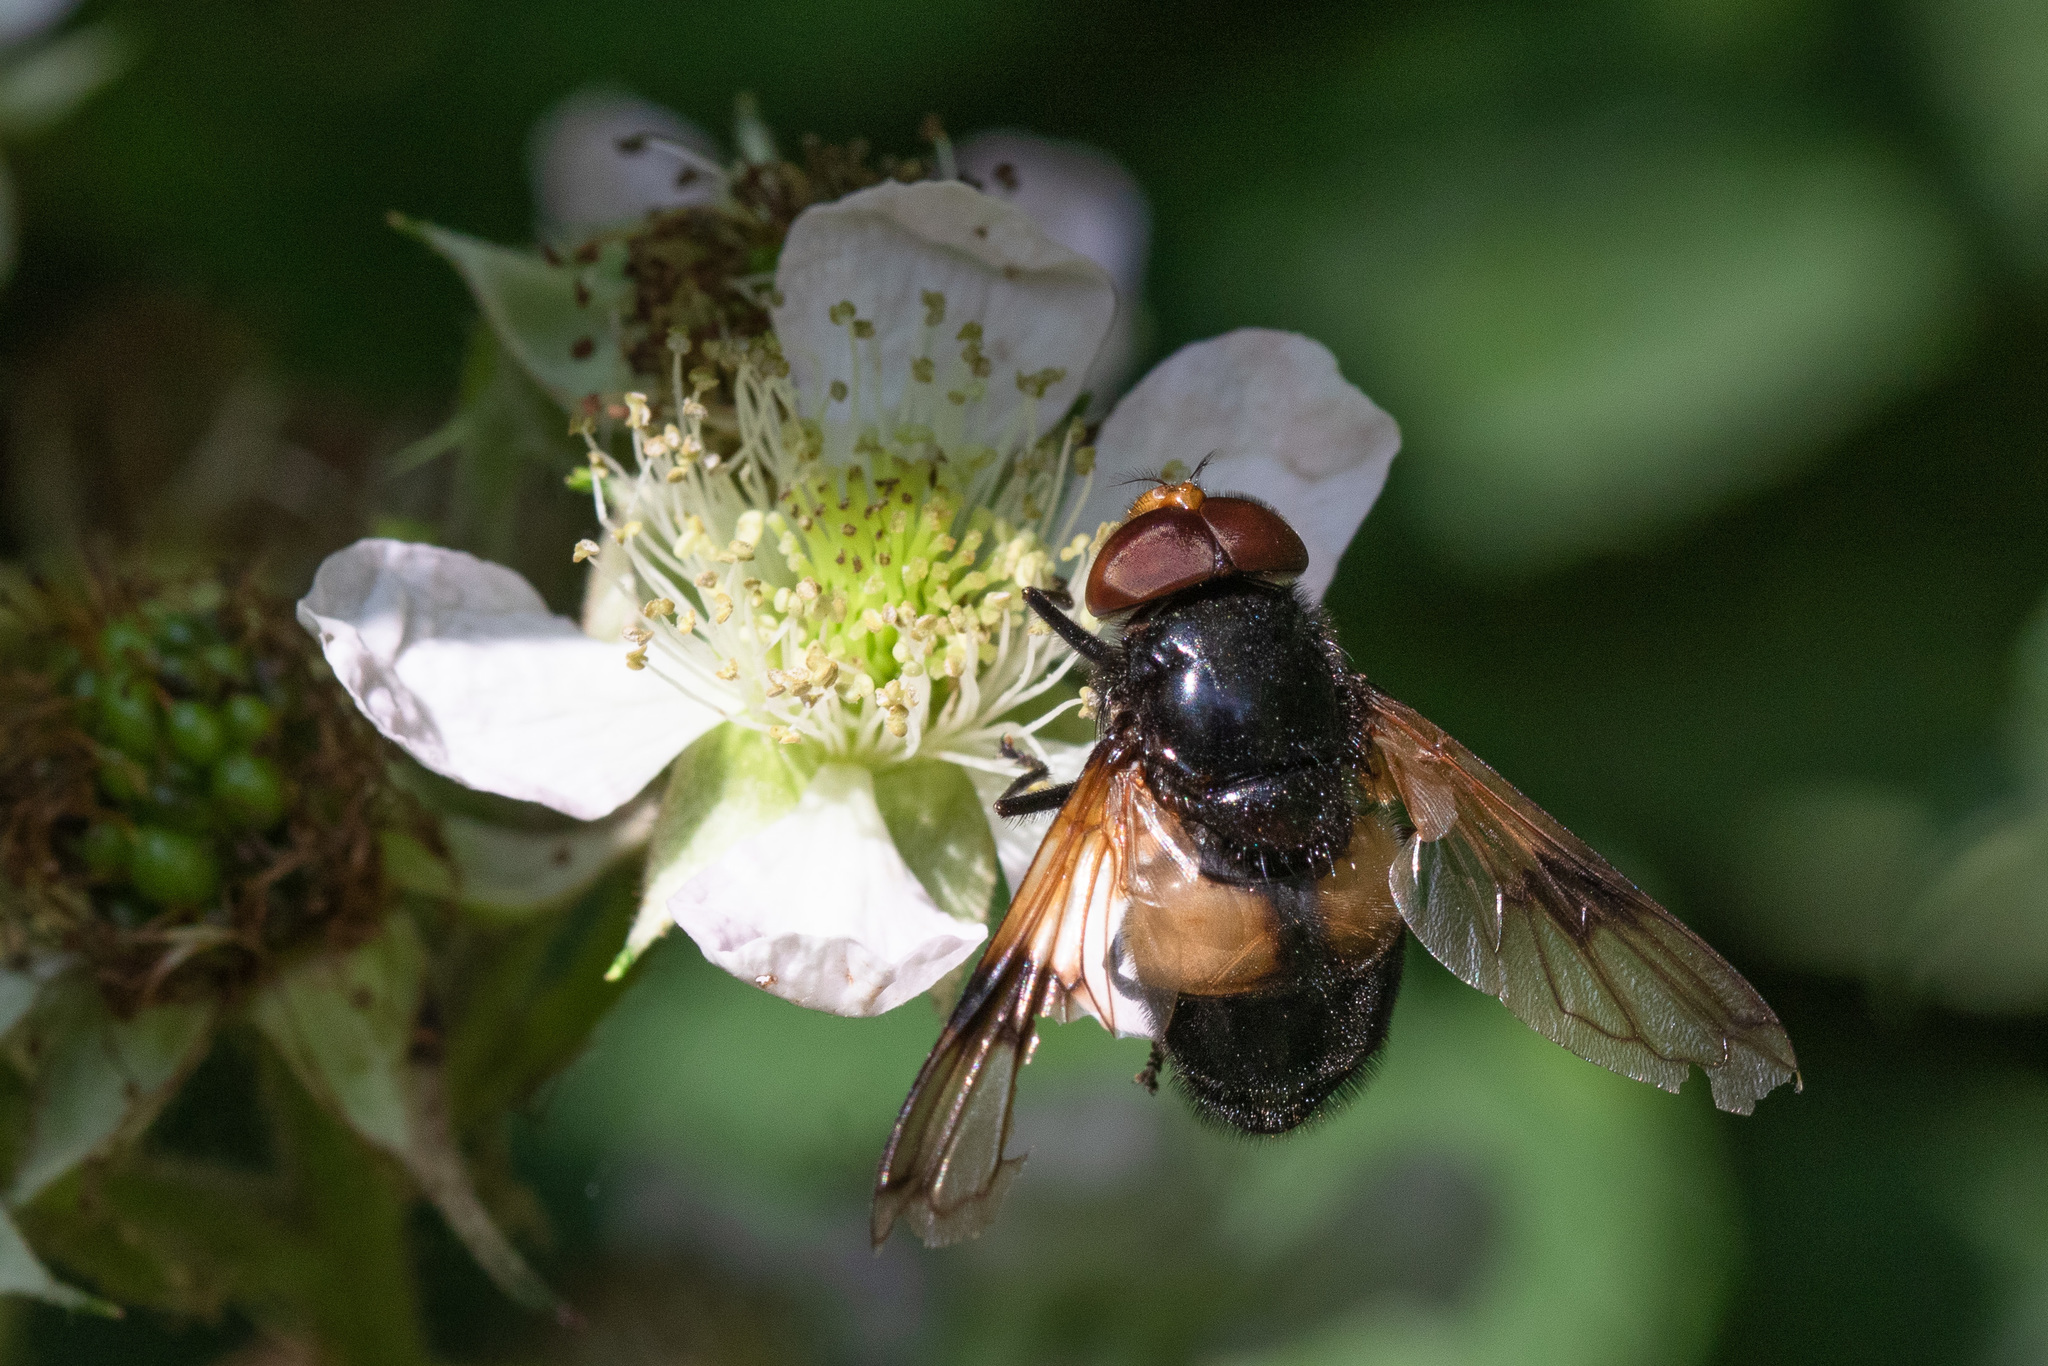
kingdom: Animalia
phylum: Arthropoda
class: Insecta
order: Diptera
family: Syrphidae
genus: Volucella
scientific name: Volucella pellucens
